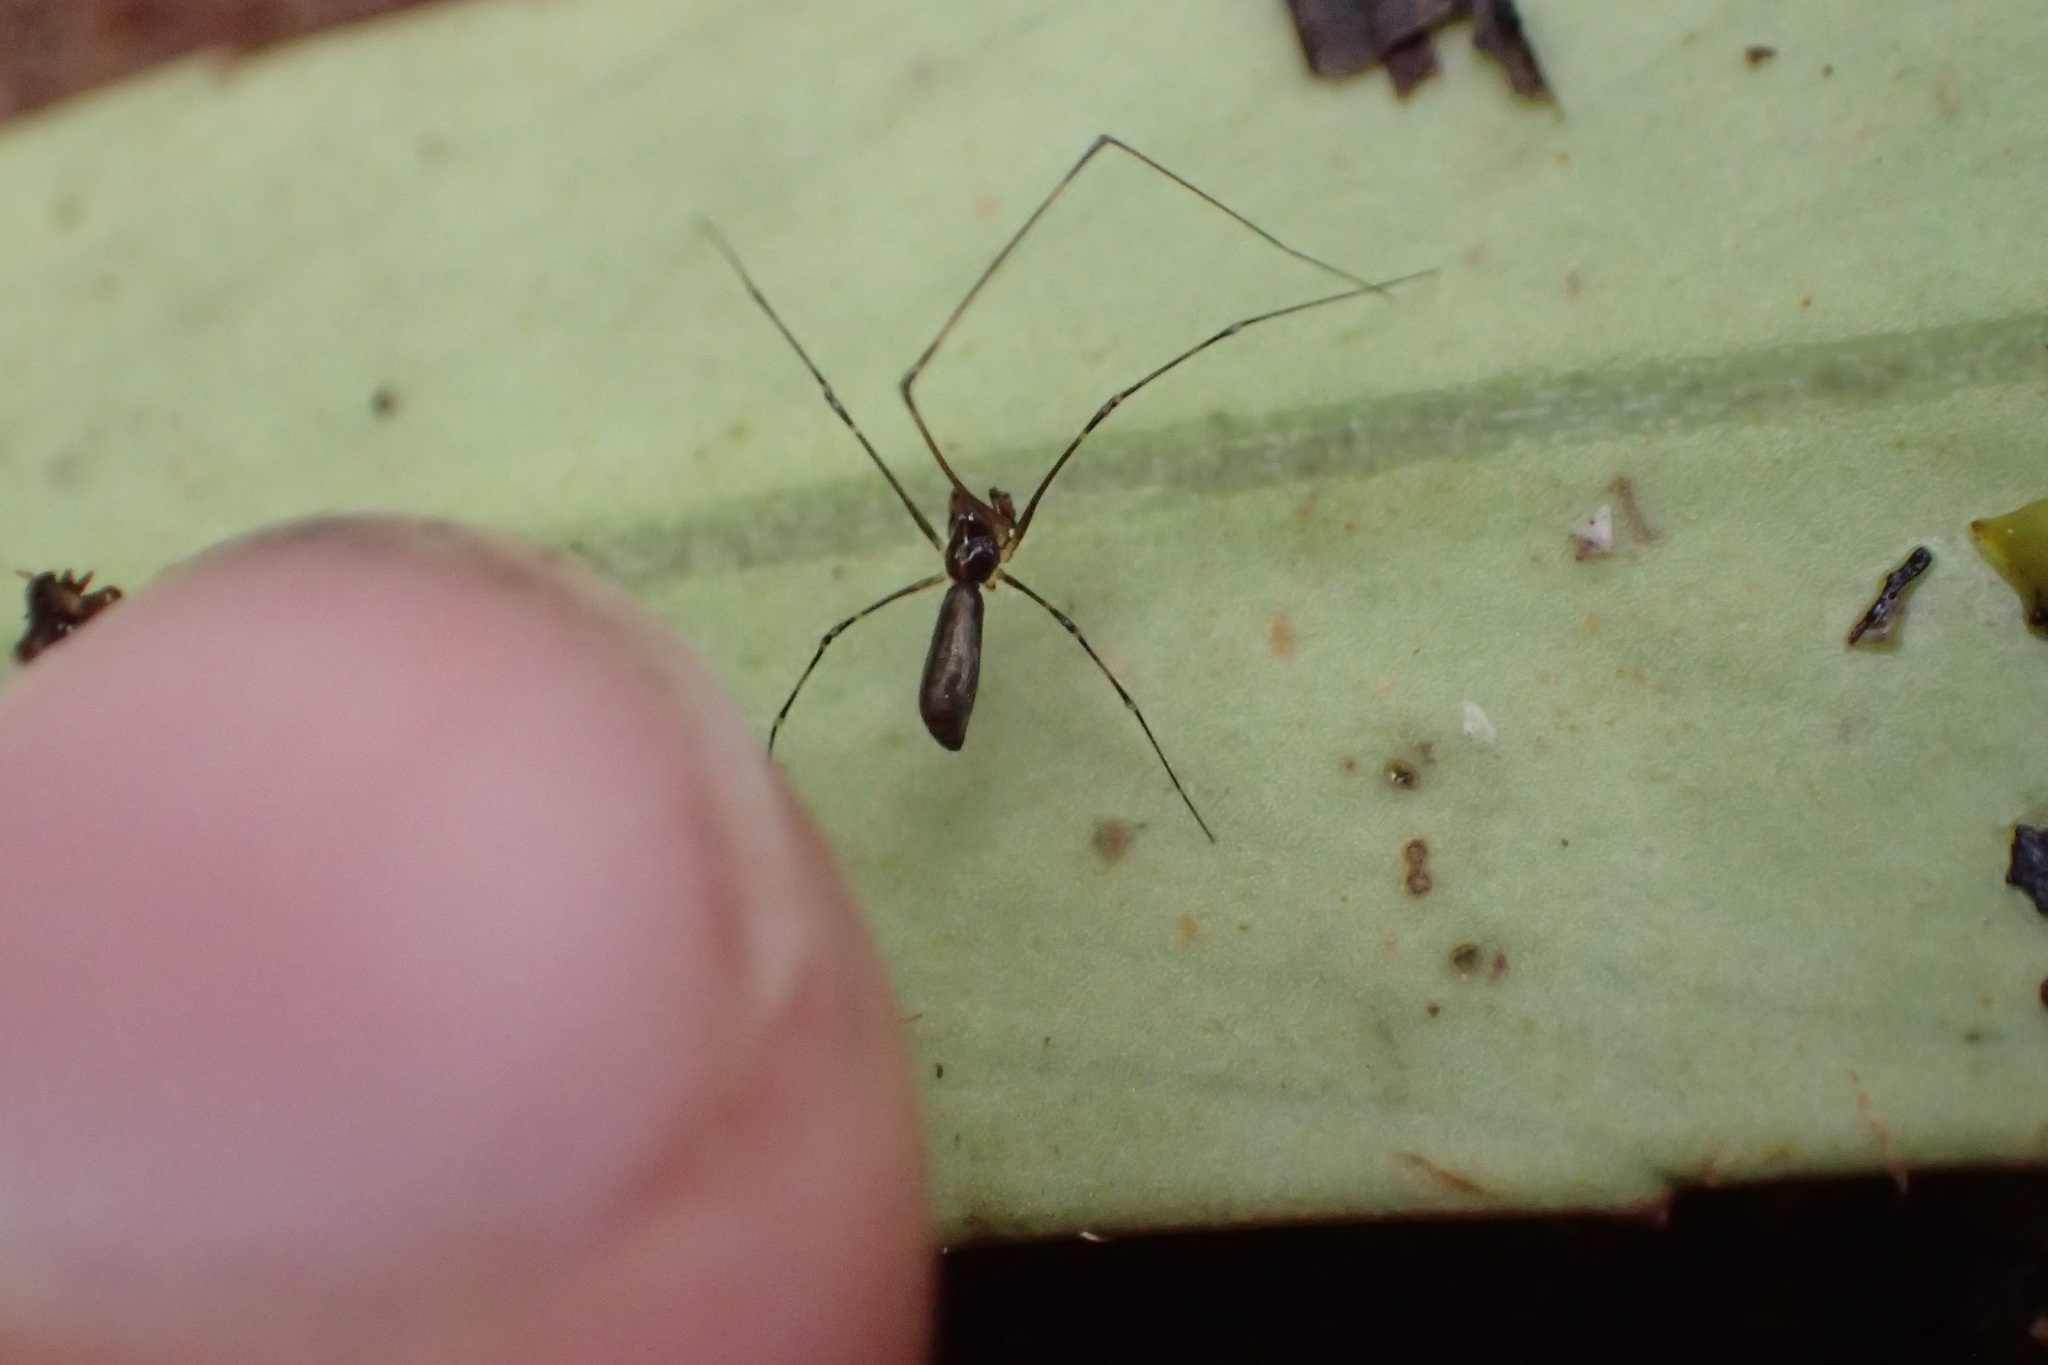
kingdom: Animalia
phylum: Arthropoda
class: Arachnida
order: Araneae
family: Physoglenidae
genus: Meringa
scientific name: Meringa hinaka
